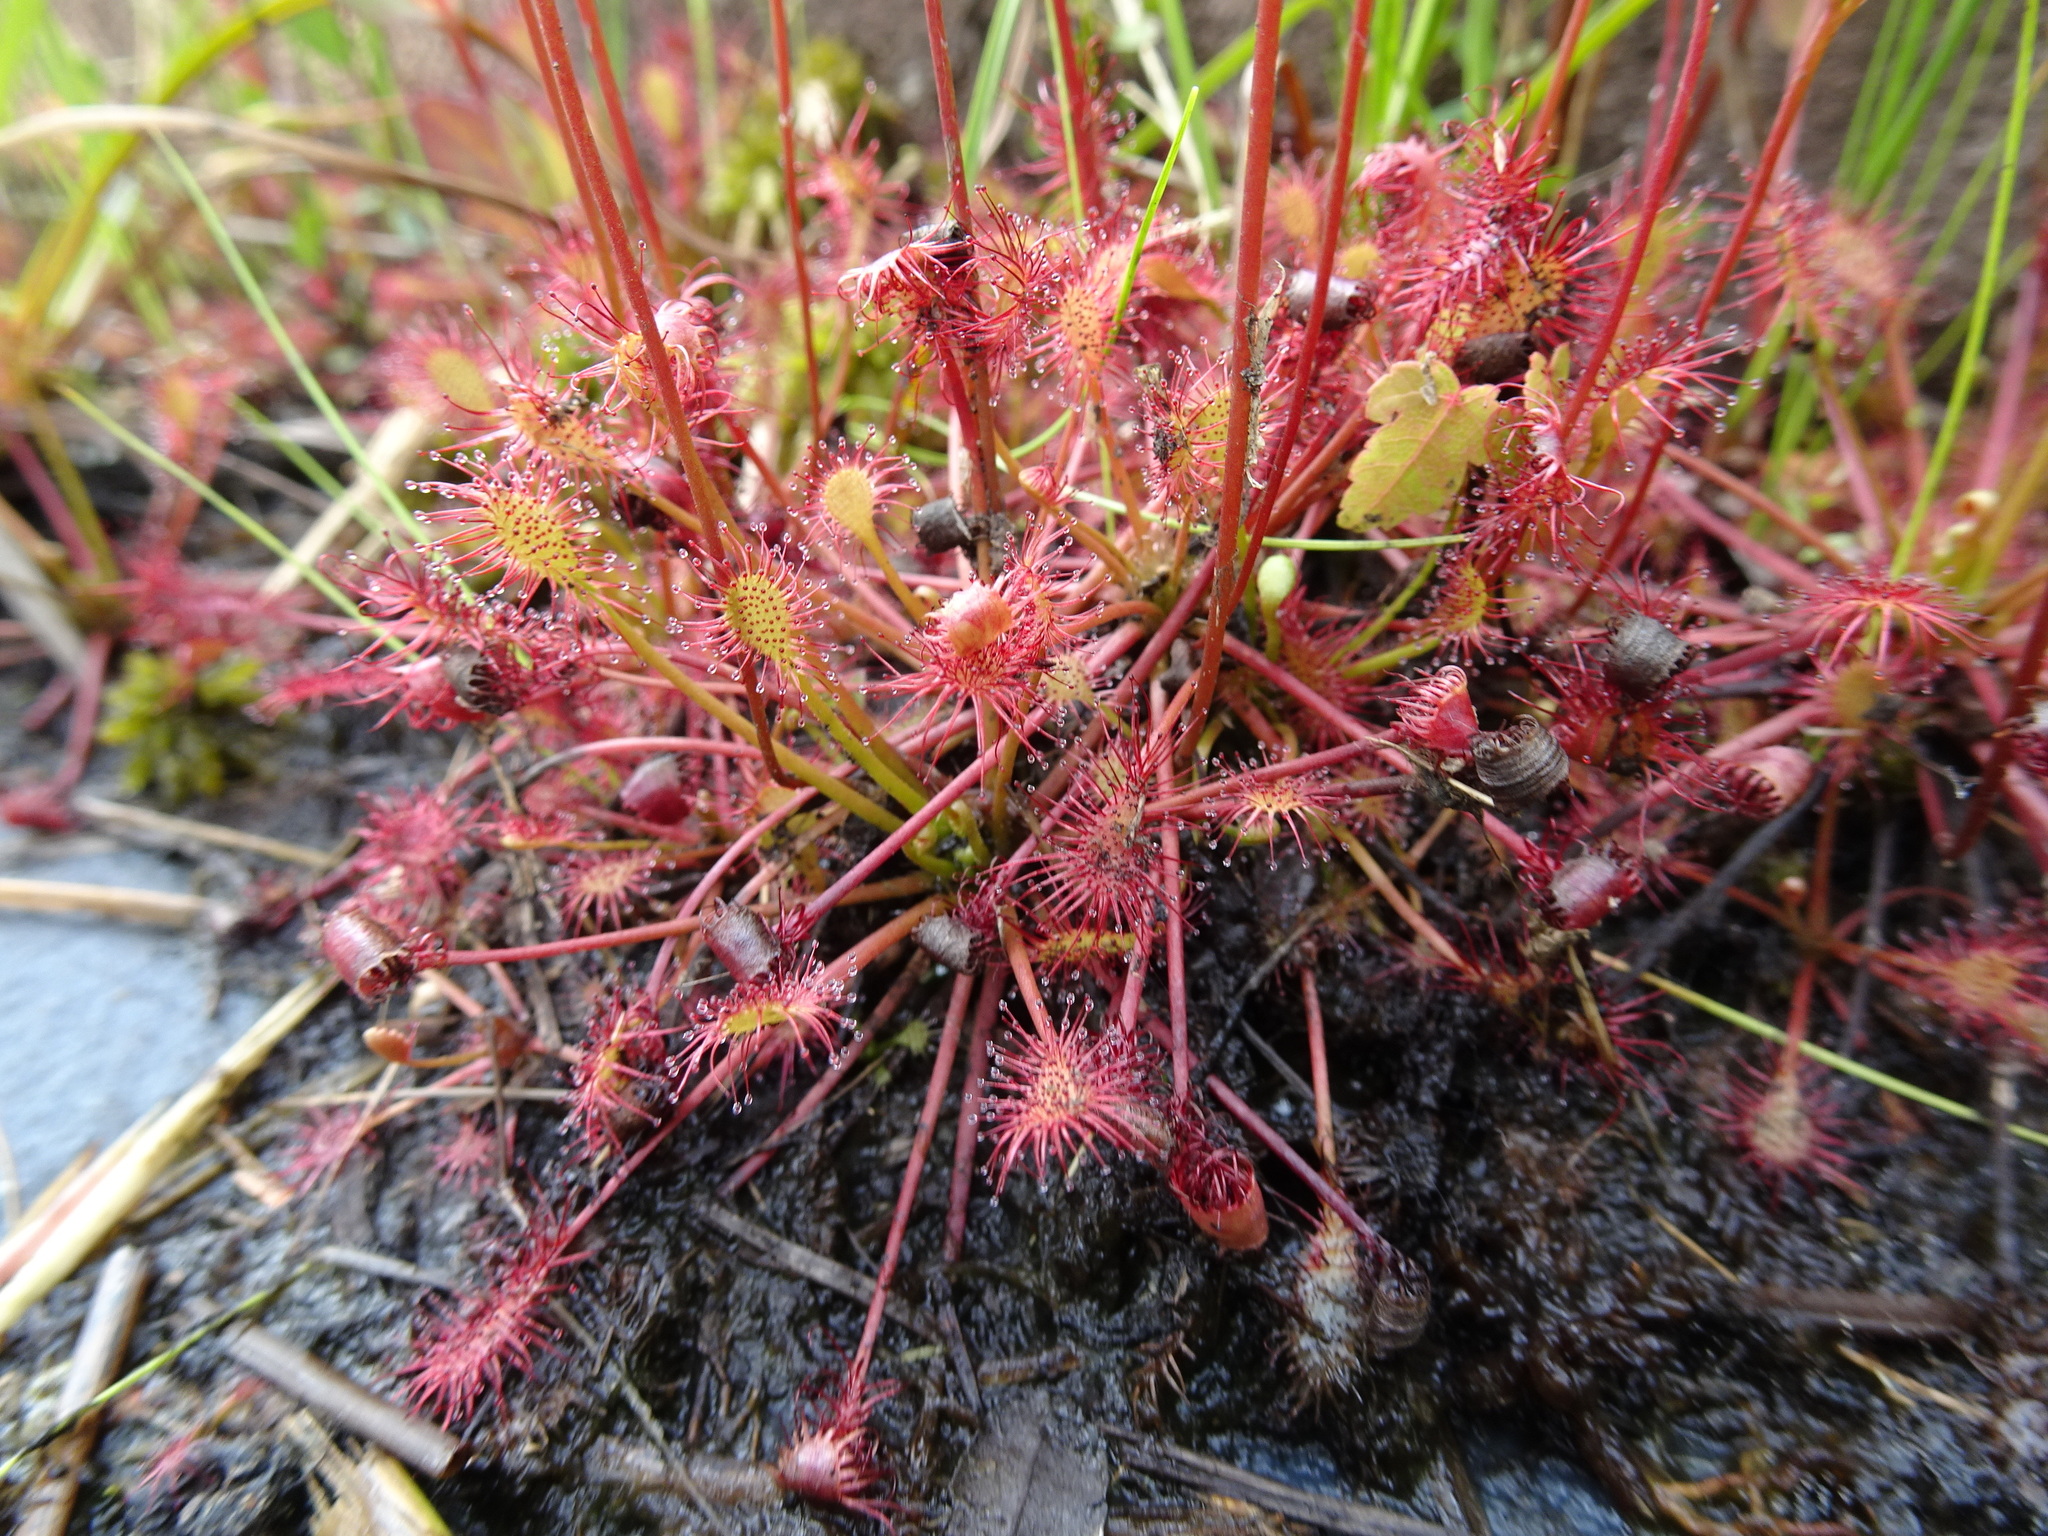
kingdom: Plantae
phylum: Tracheophyta
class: Magnoliopsida
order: Caryophyllales
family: Droseraceae
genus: Drosera
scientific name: Drosera intermedia
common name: Oblong-leaved sundew
